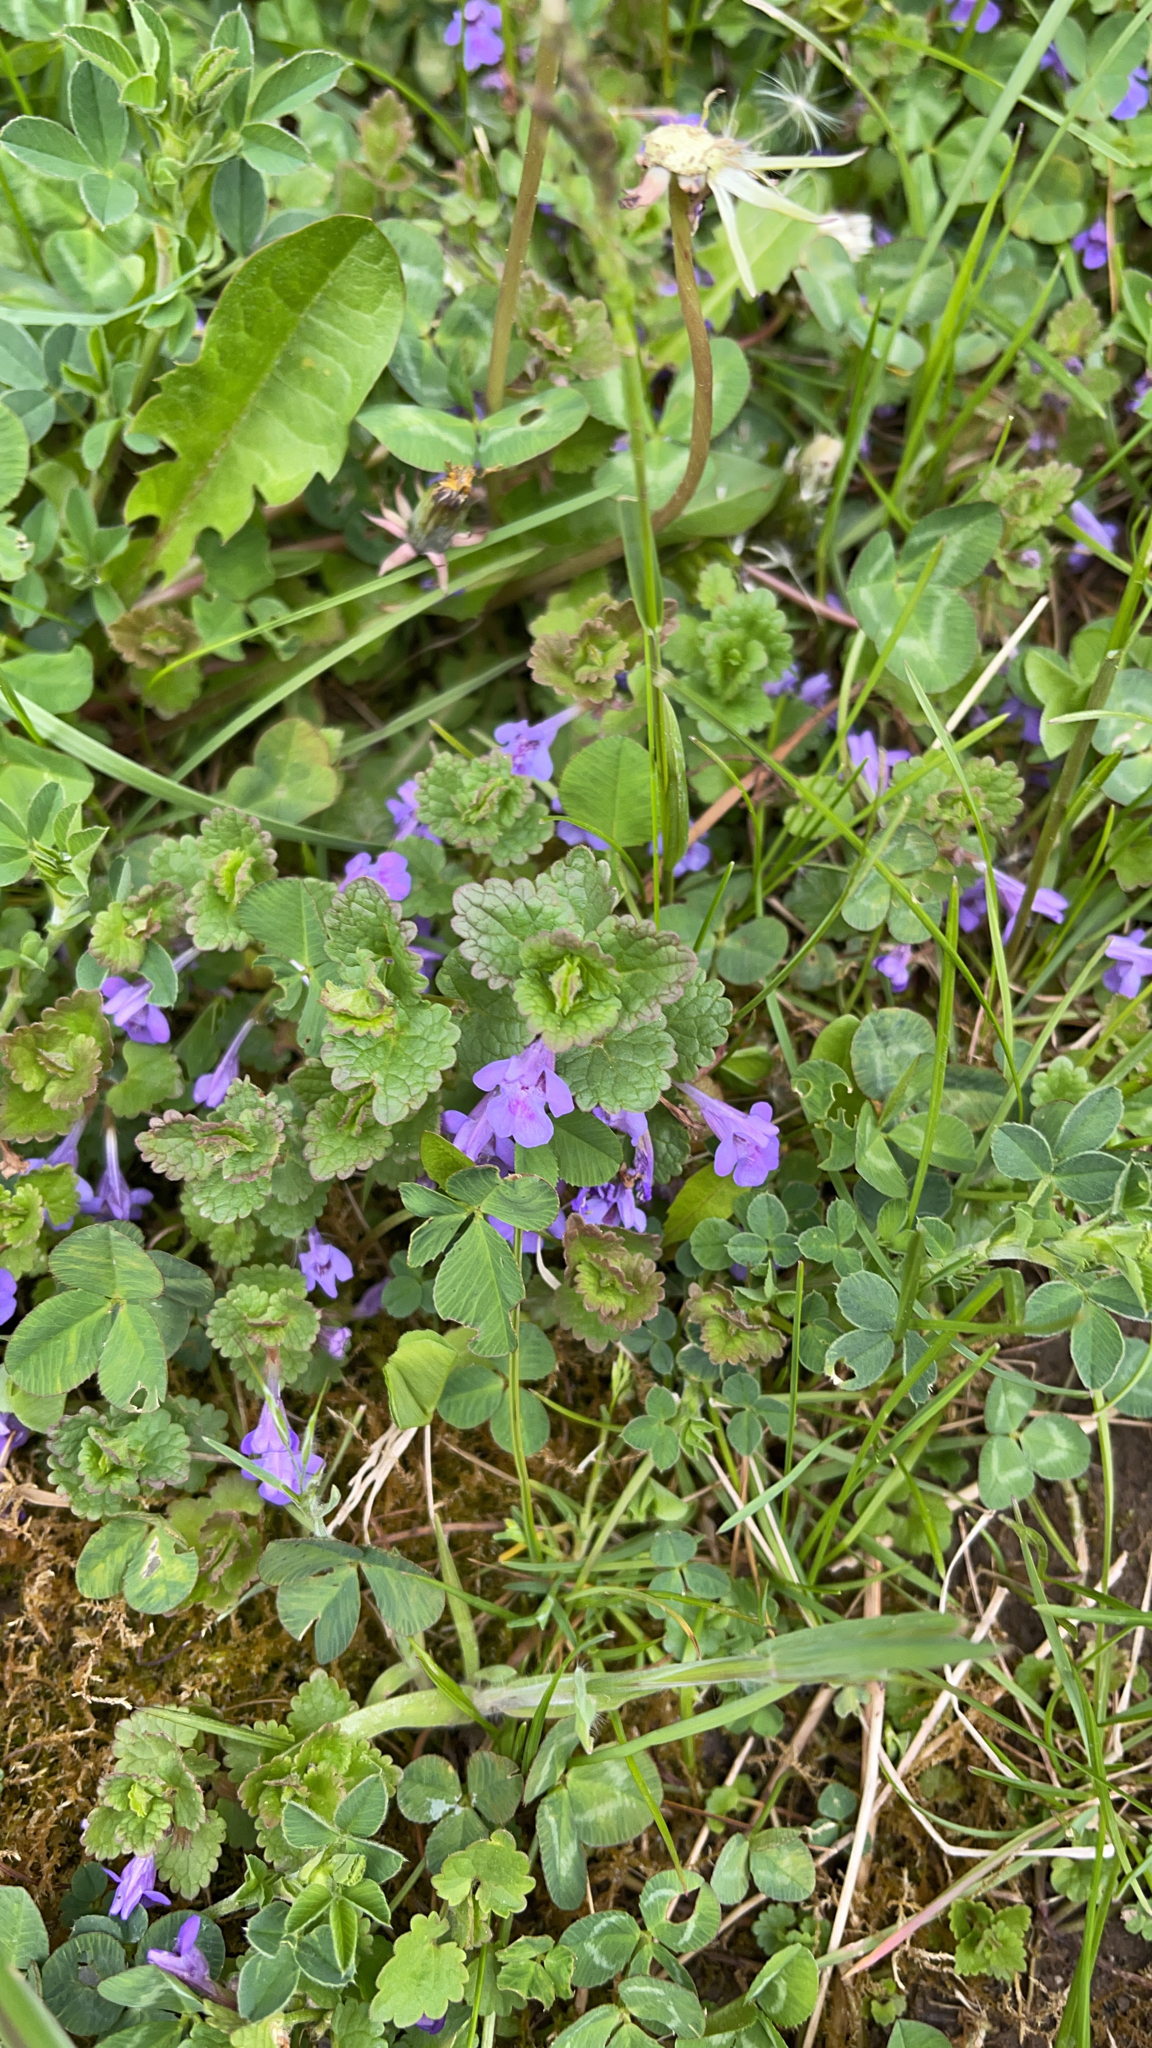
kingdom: Plantae
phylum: Tracheophyta
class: Magnoliopsida
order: Lamiales
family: Lamiaceae
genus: Glechoma
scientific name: Glechoma hederacea
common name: Ground ivy
